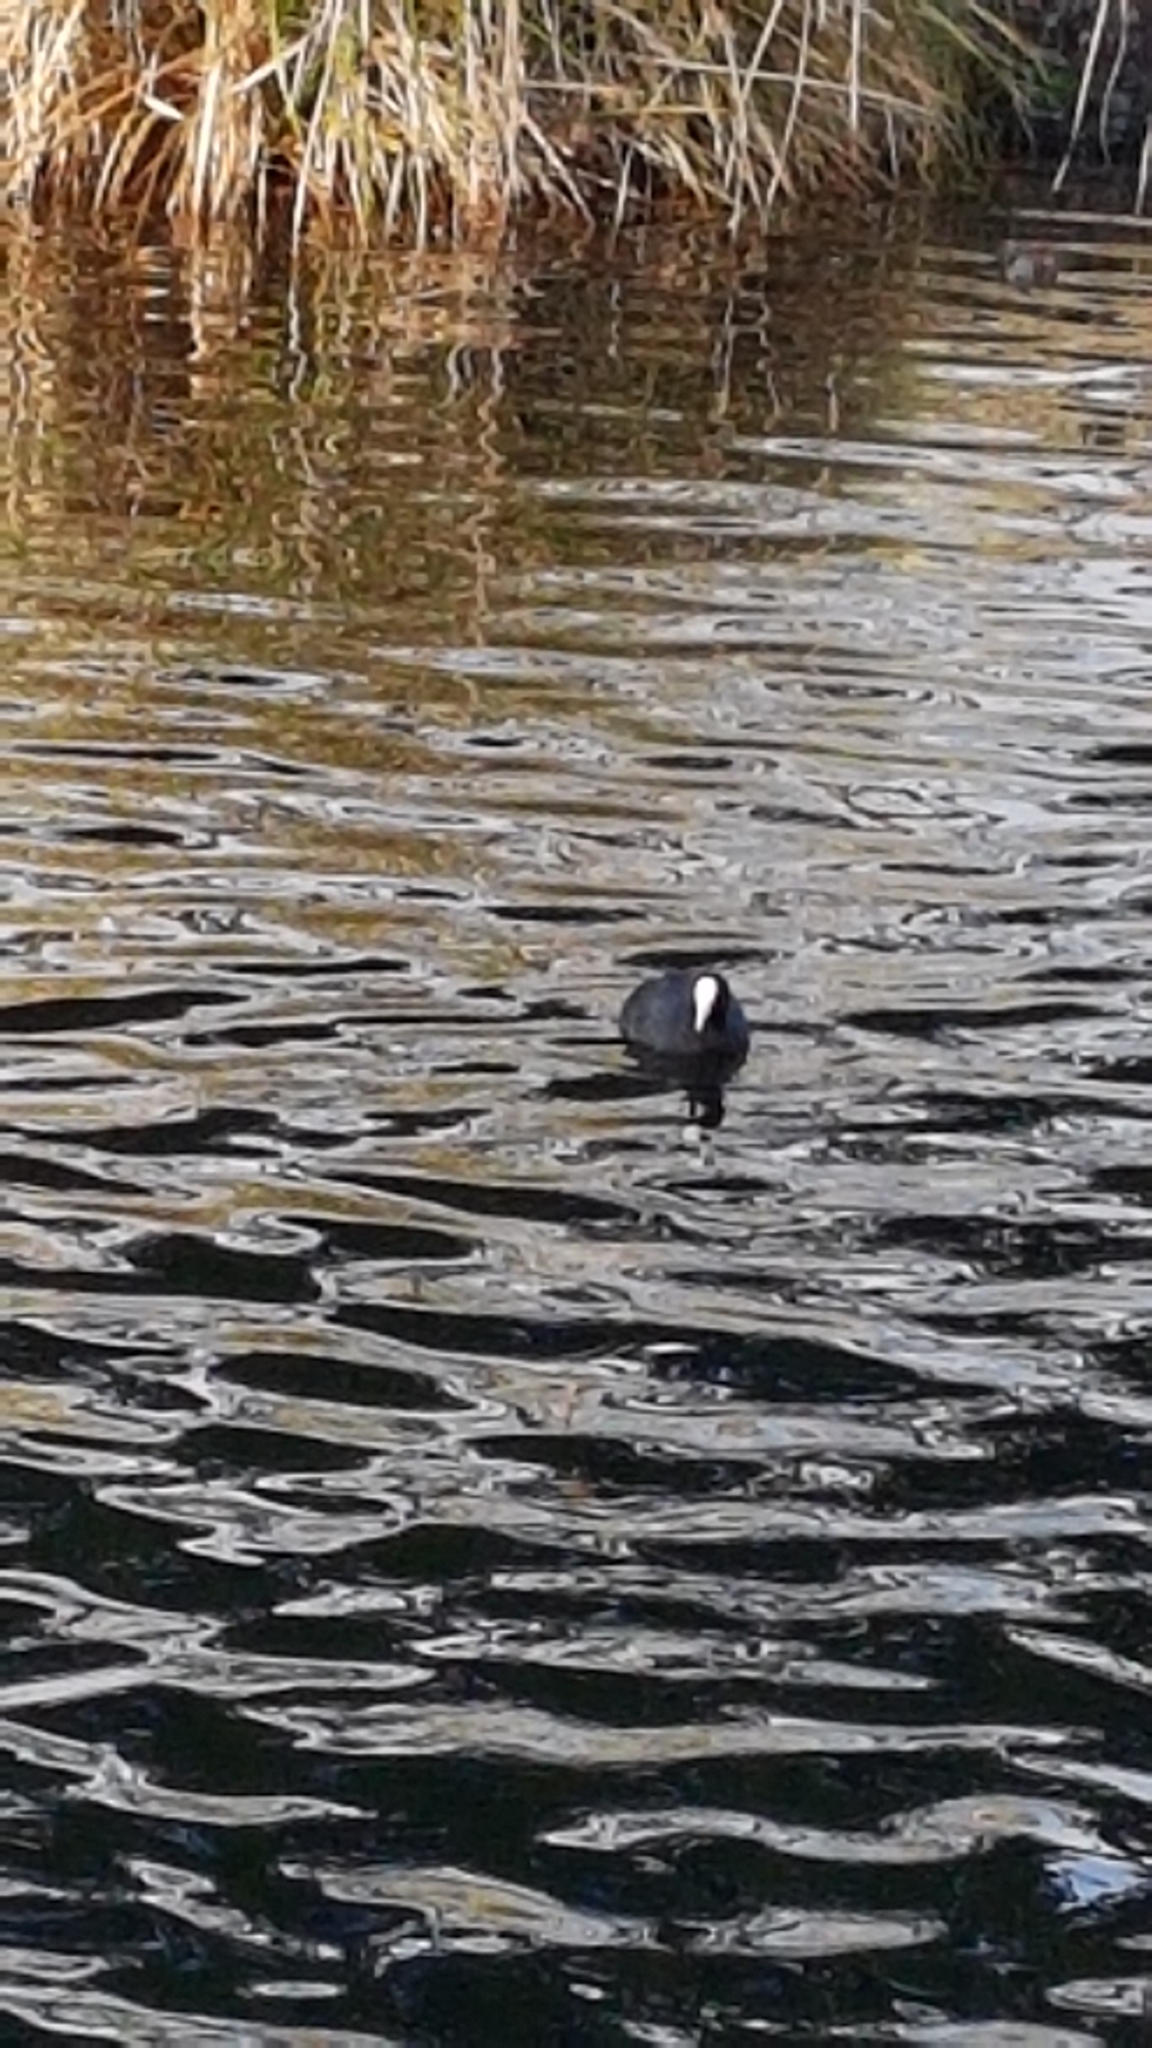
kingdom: Animalia
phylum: Chordata
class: Aves
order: Gruiformes
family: Rallidae
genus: Fulica
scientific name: Fulica atra
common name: Eurasian coot
